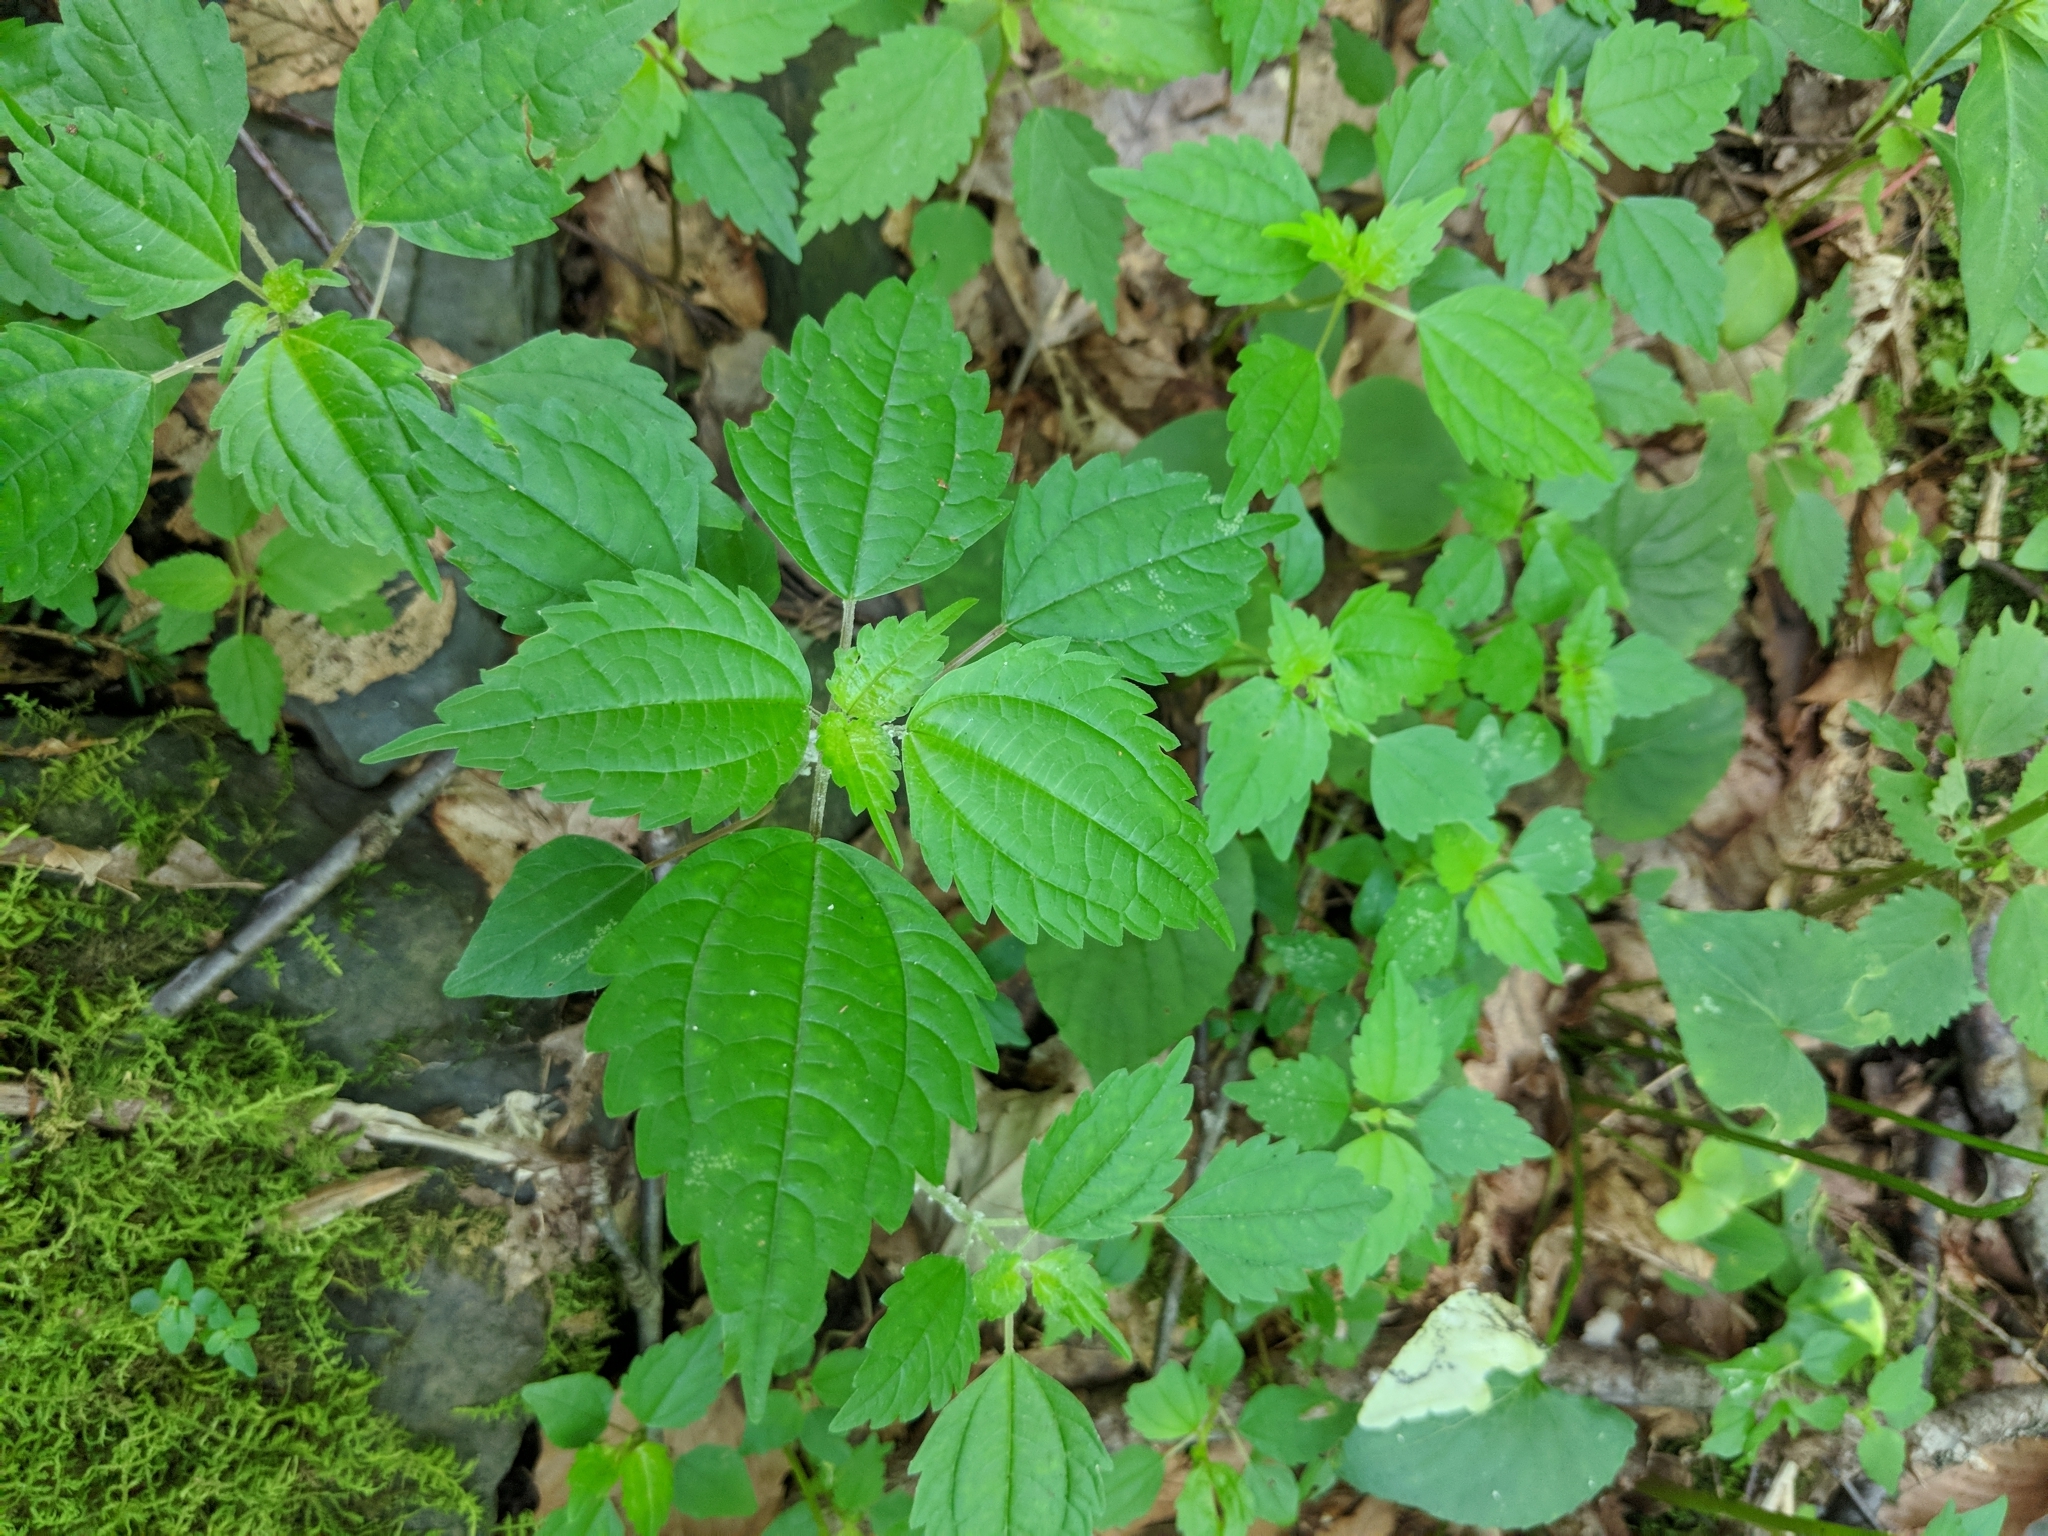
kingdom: Plantae
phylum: Tracheophyta
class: Magnoliopsida
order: Rosales
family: Urticaceae
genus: Pilea
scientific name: Pilea pumila
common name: Clearweed
